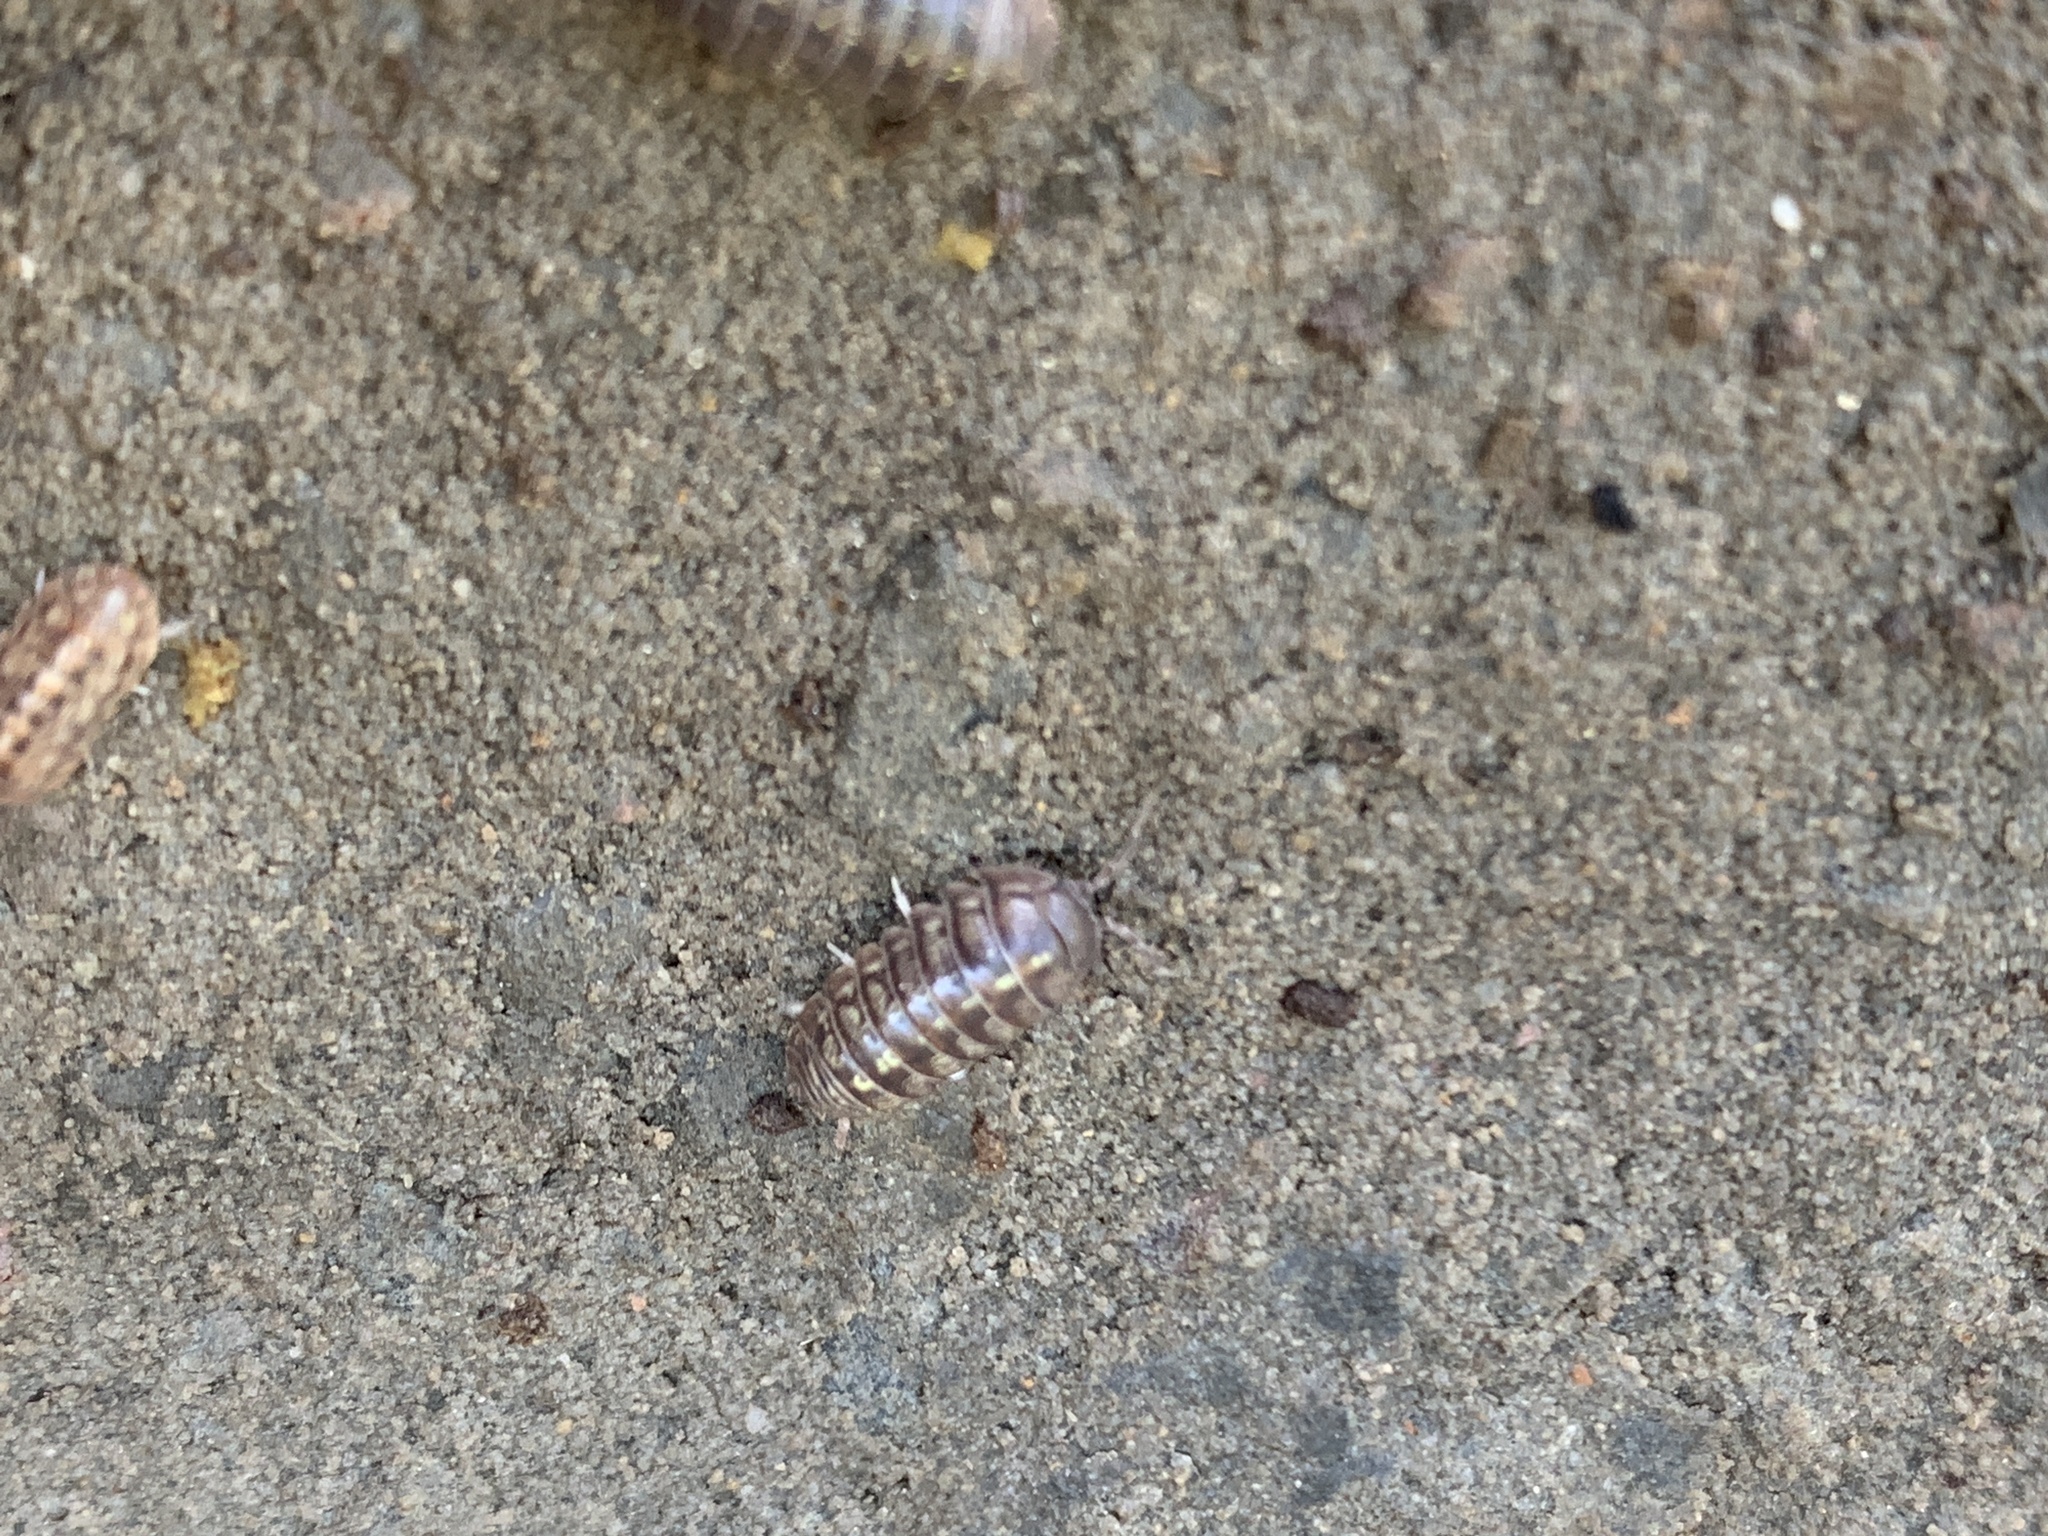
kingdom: Animalia
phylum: Arthropoda
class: Malacostraca
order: Isopoda
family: Armadillidiidae
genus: Armadillidium
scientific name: Armadillidium vulgare
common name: Common pill woodlouse
